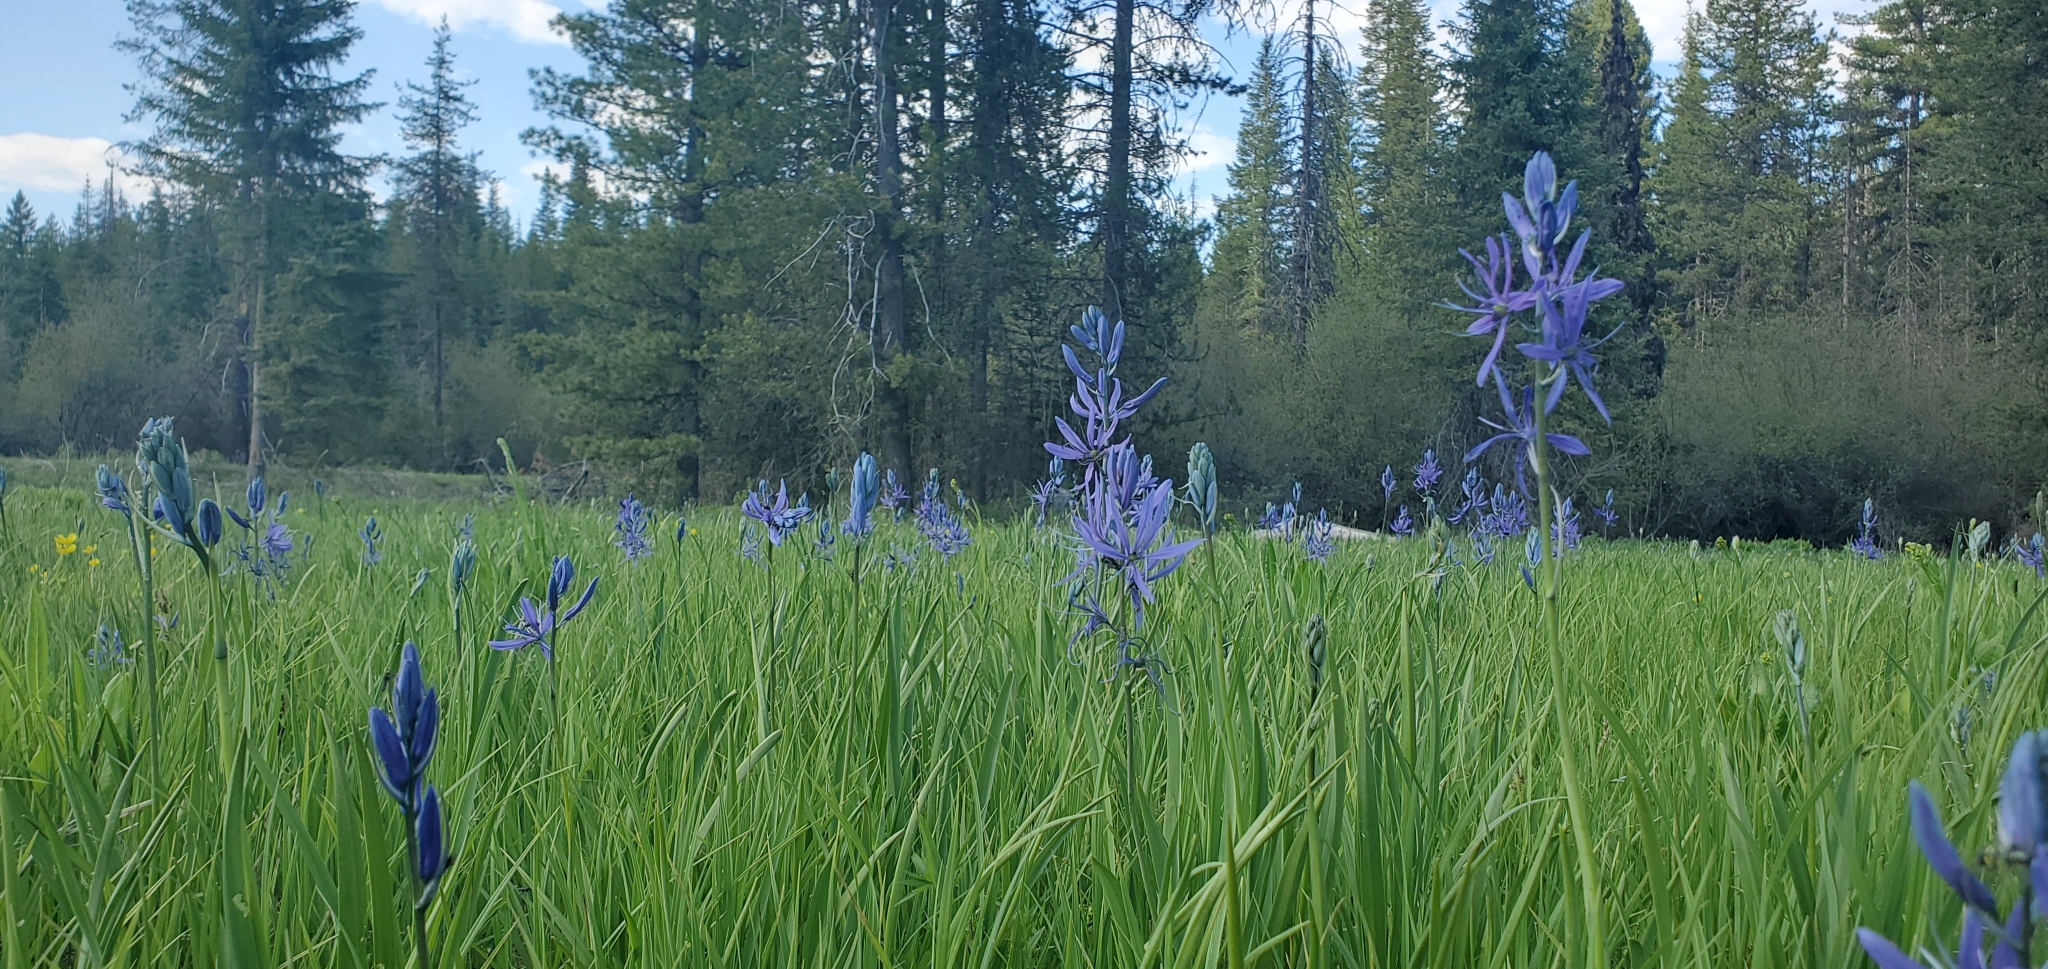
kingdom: Plantae
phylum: Tracheophyta
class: Liliopsida
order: Asparagales
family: Asparagaceae
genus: Camassia
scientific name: Camassia quamash
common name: Common camas
